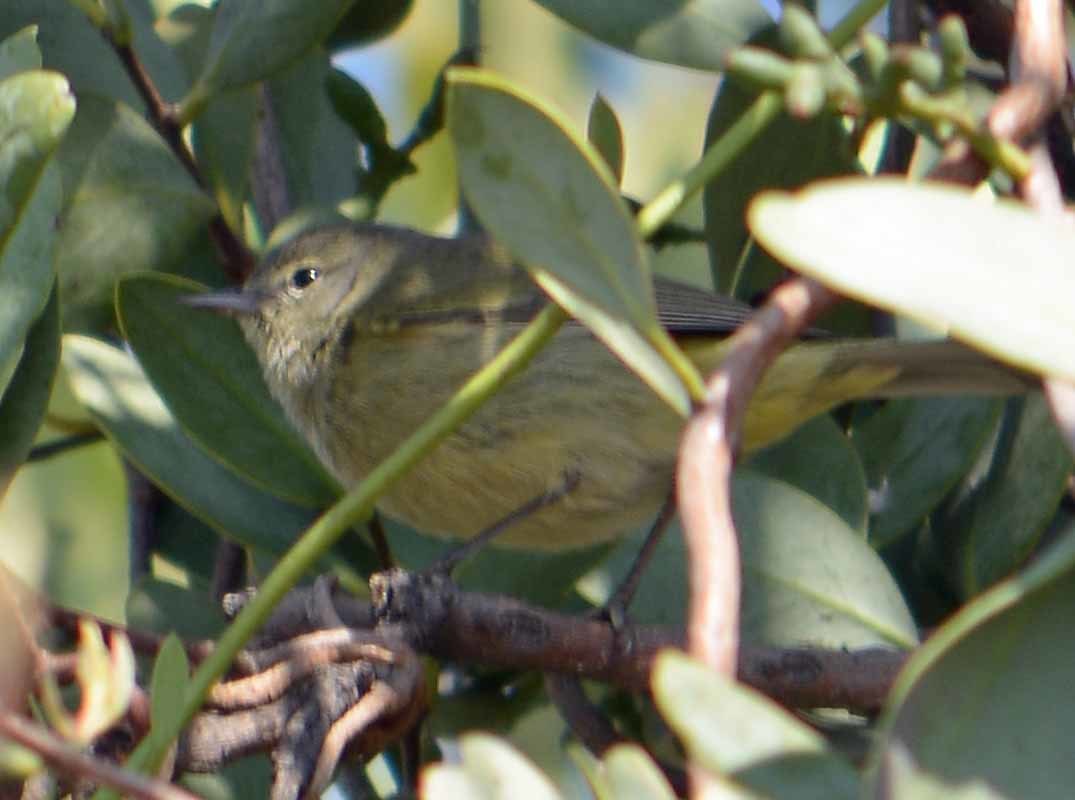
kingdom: Animalia
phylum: Chordata
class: Aves
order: Passeriformes
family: Parulidae
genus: Leiothlypis
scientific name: Leiothlypis celata
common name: Orange-crowned warbler
